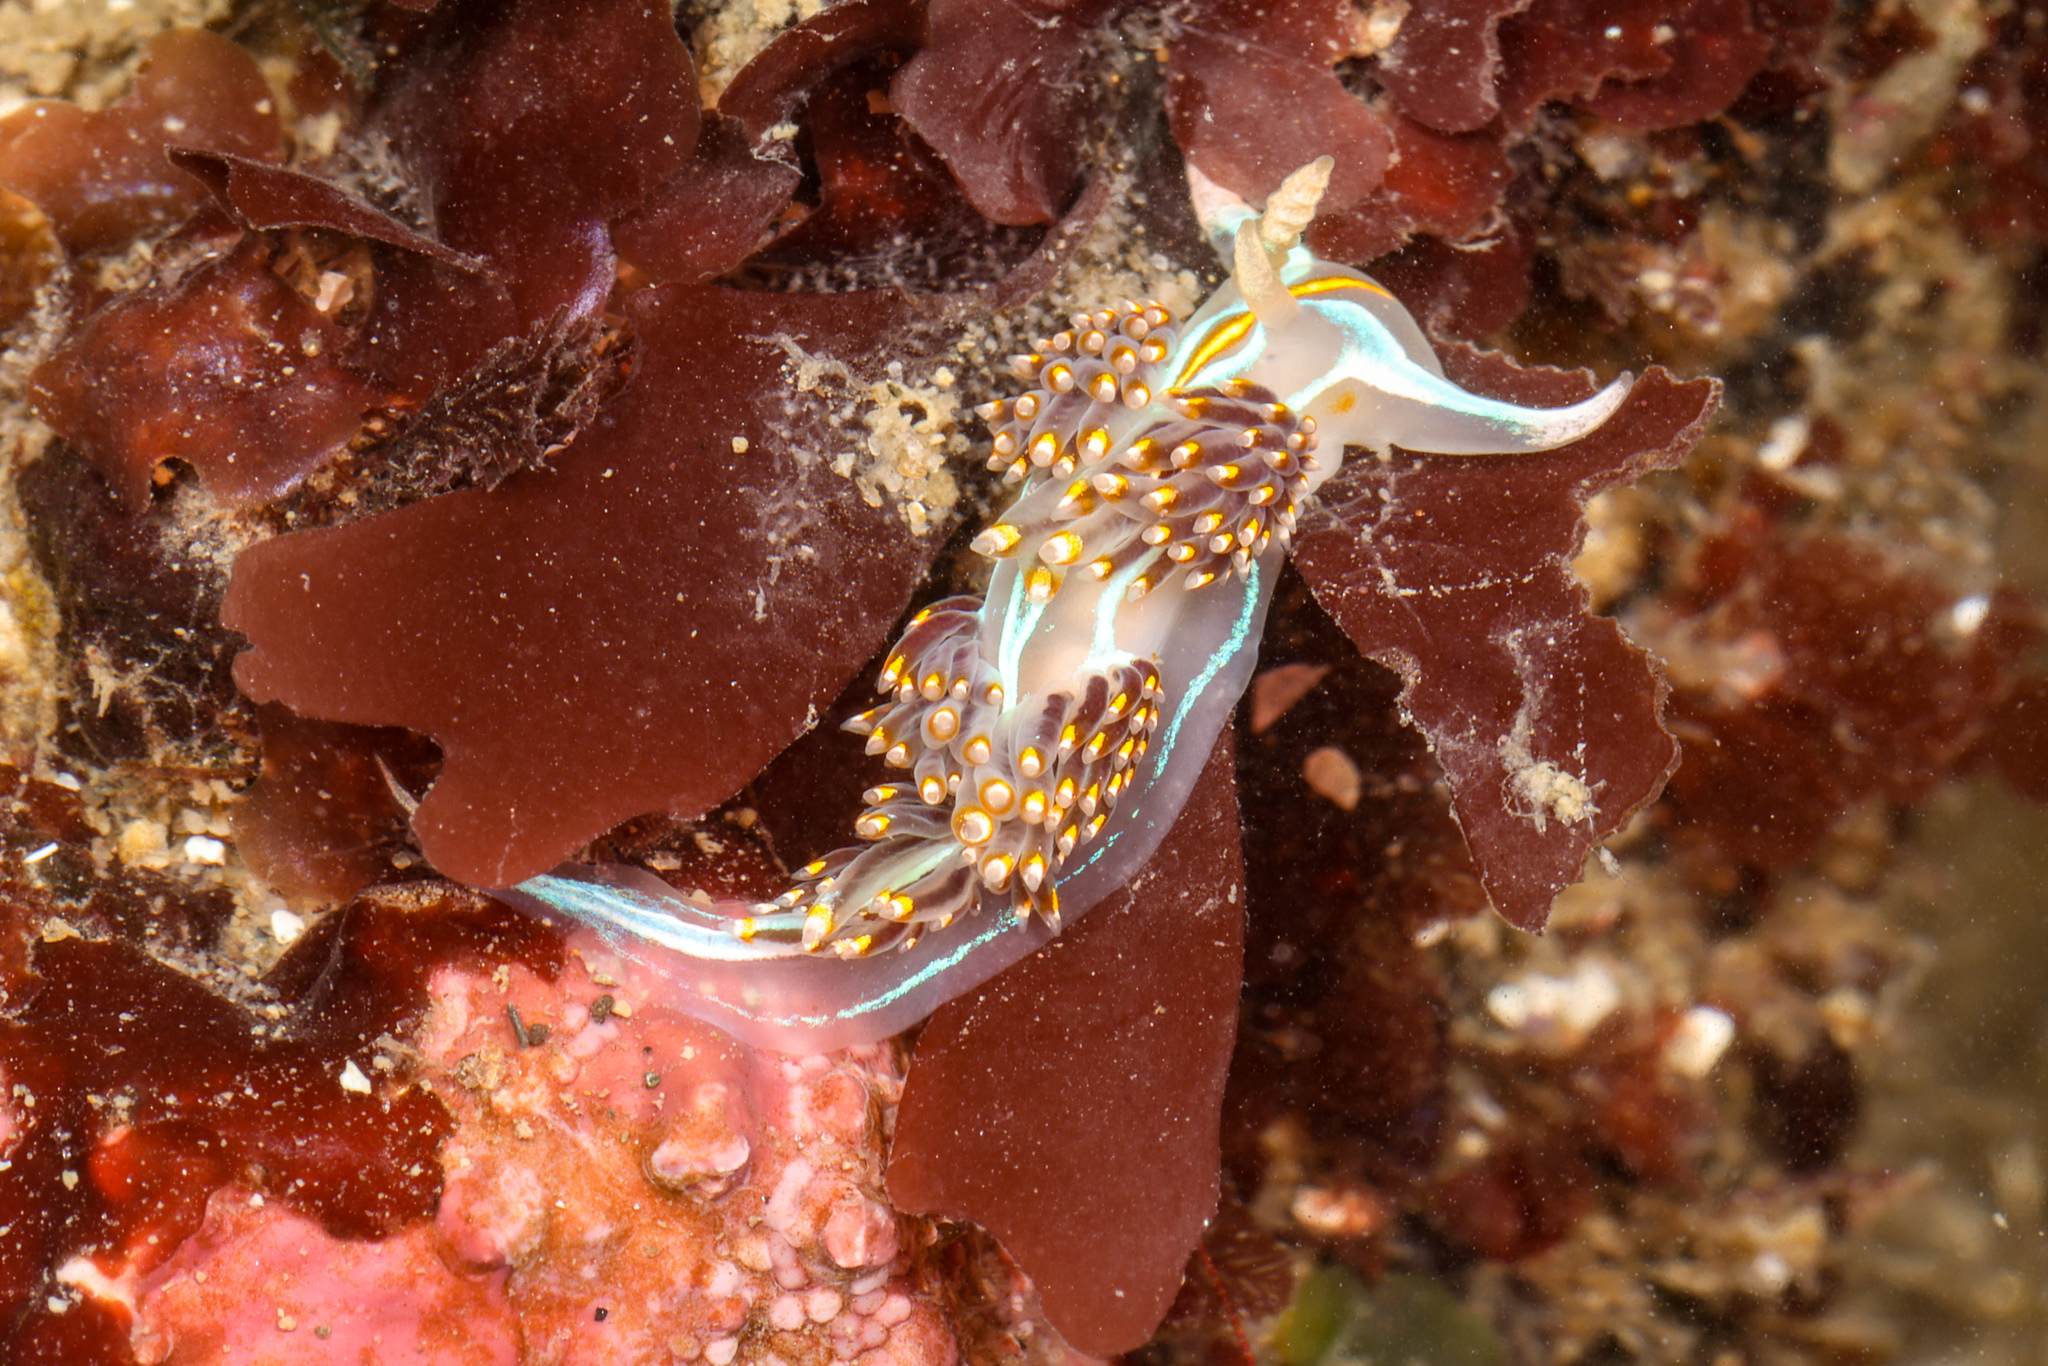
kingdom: Animalia
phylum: Mollusca
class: Gastropoda
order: Nudibranchia
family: Myrrhinidae
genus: Hermissenda
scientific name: Hermissenda opalescens
